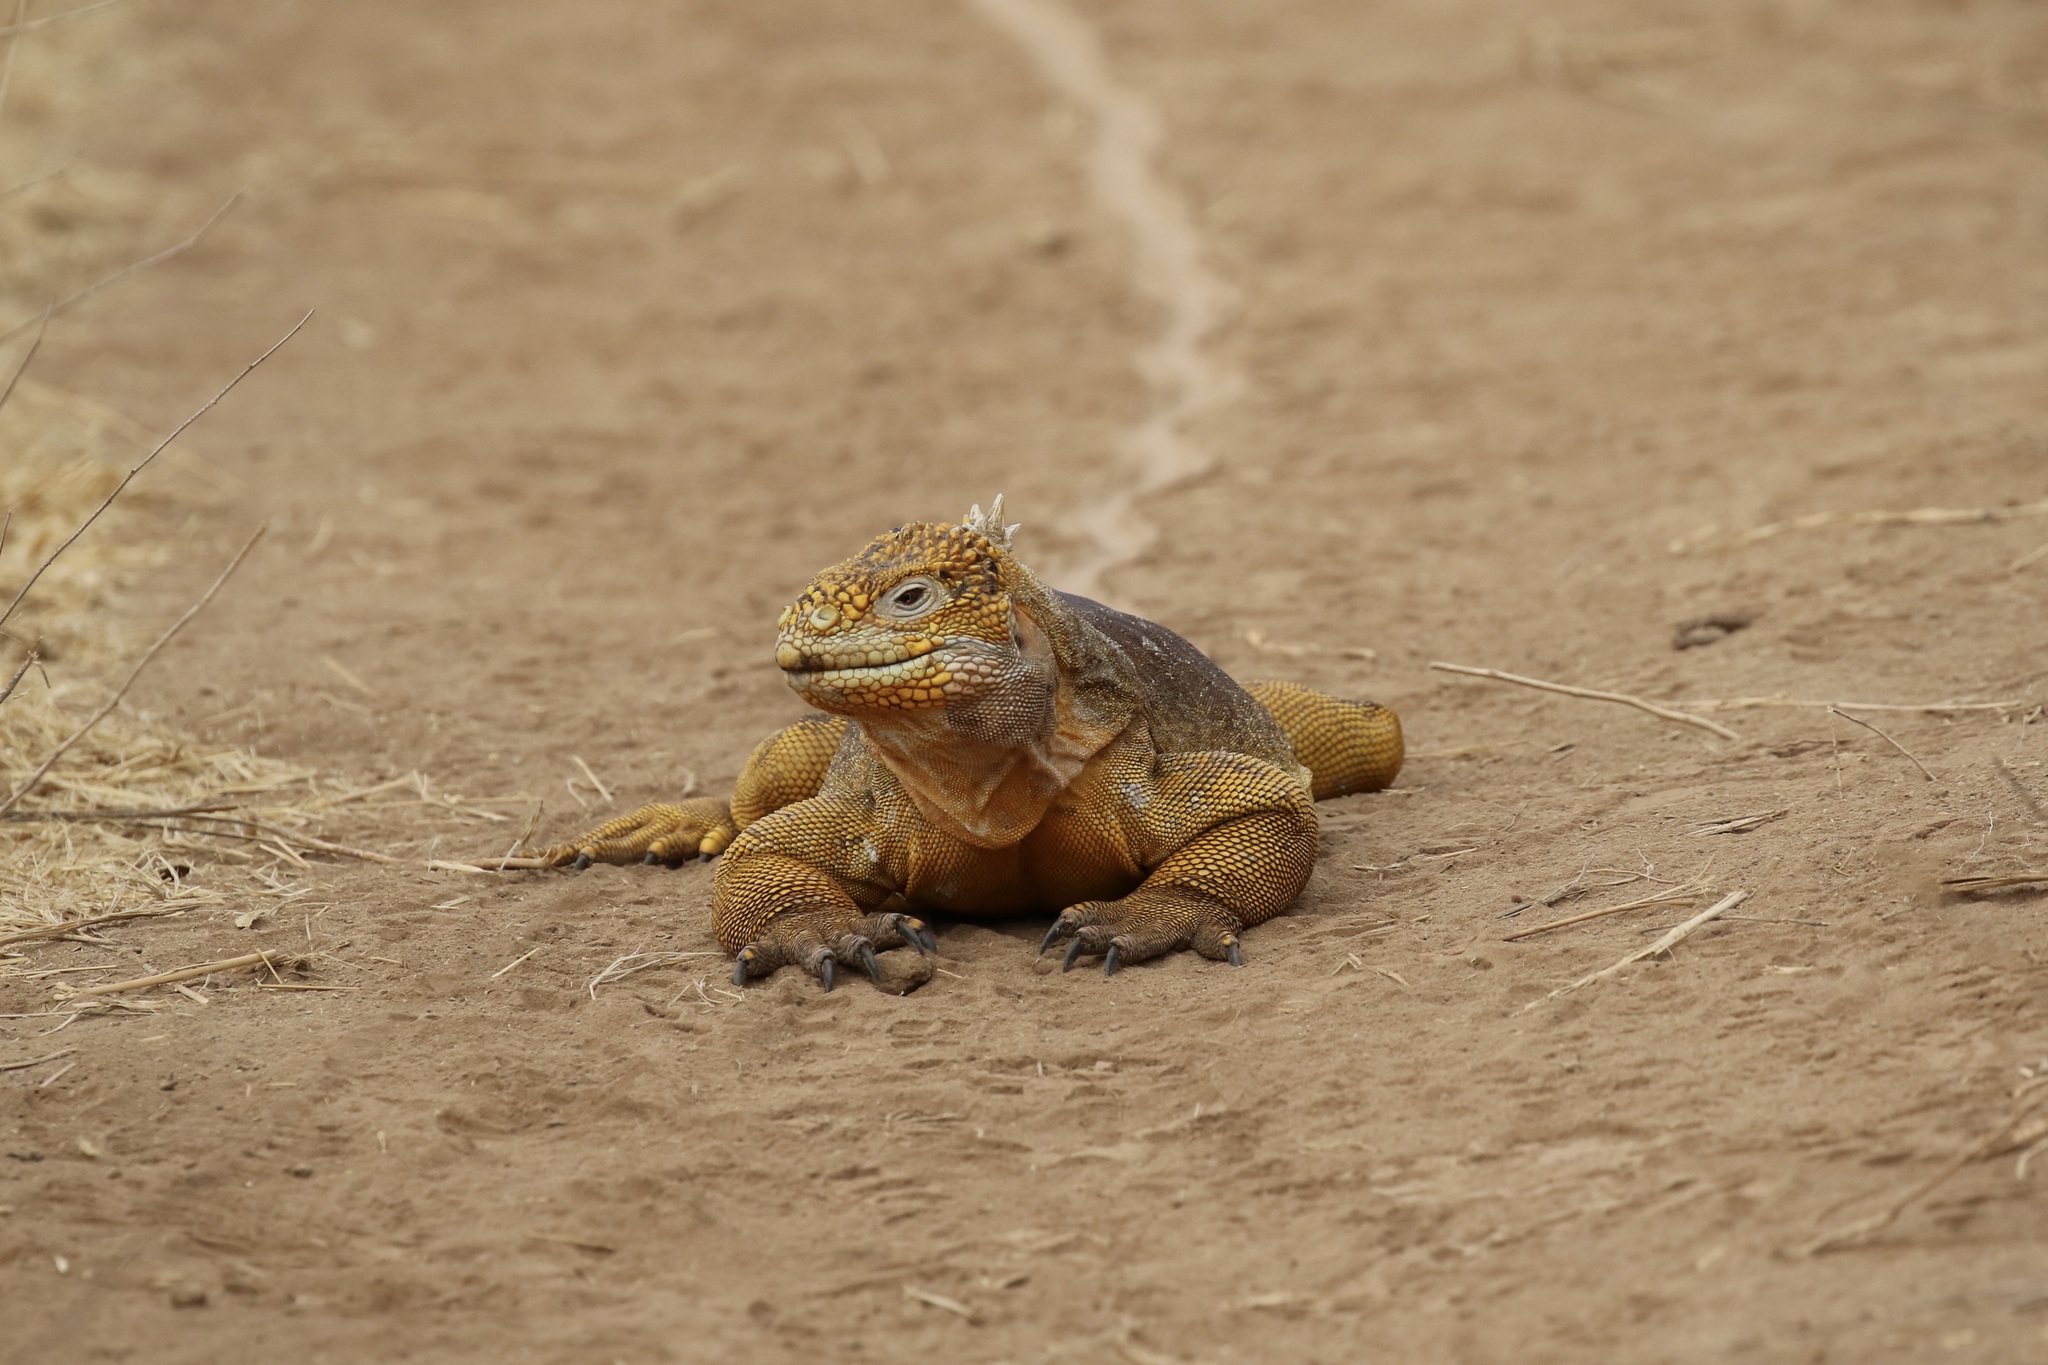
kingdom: Animalia
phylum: Chordata
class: Squamata
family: Iguanidae
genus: Conolophus
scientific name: Conolophus subcristatus
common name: Galapagos land iguana
